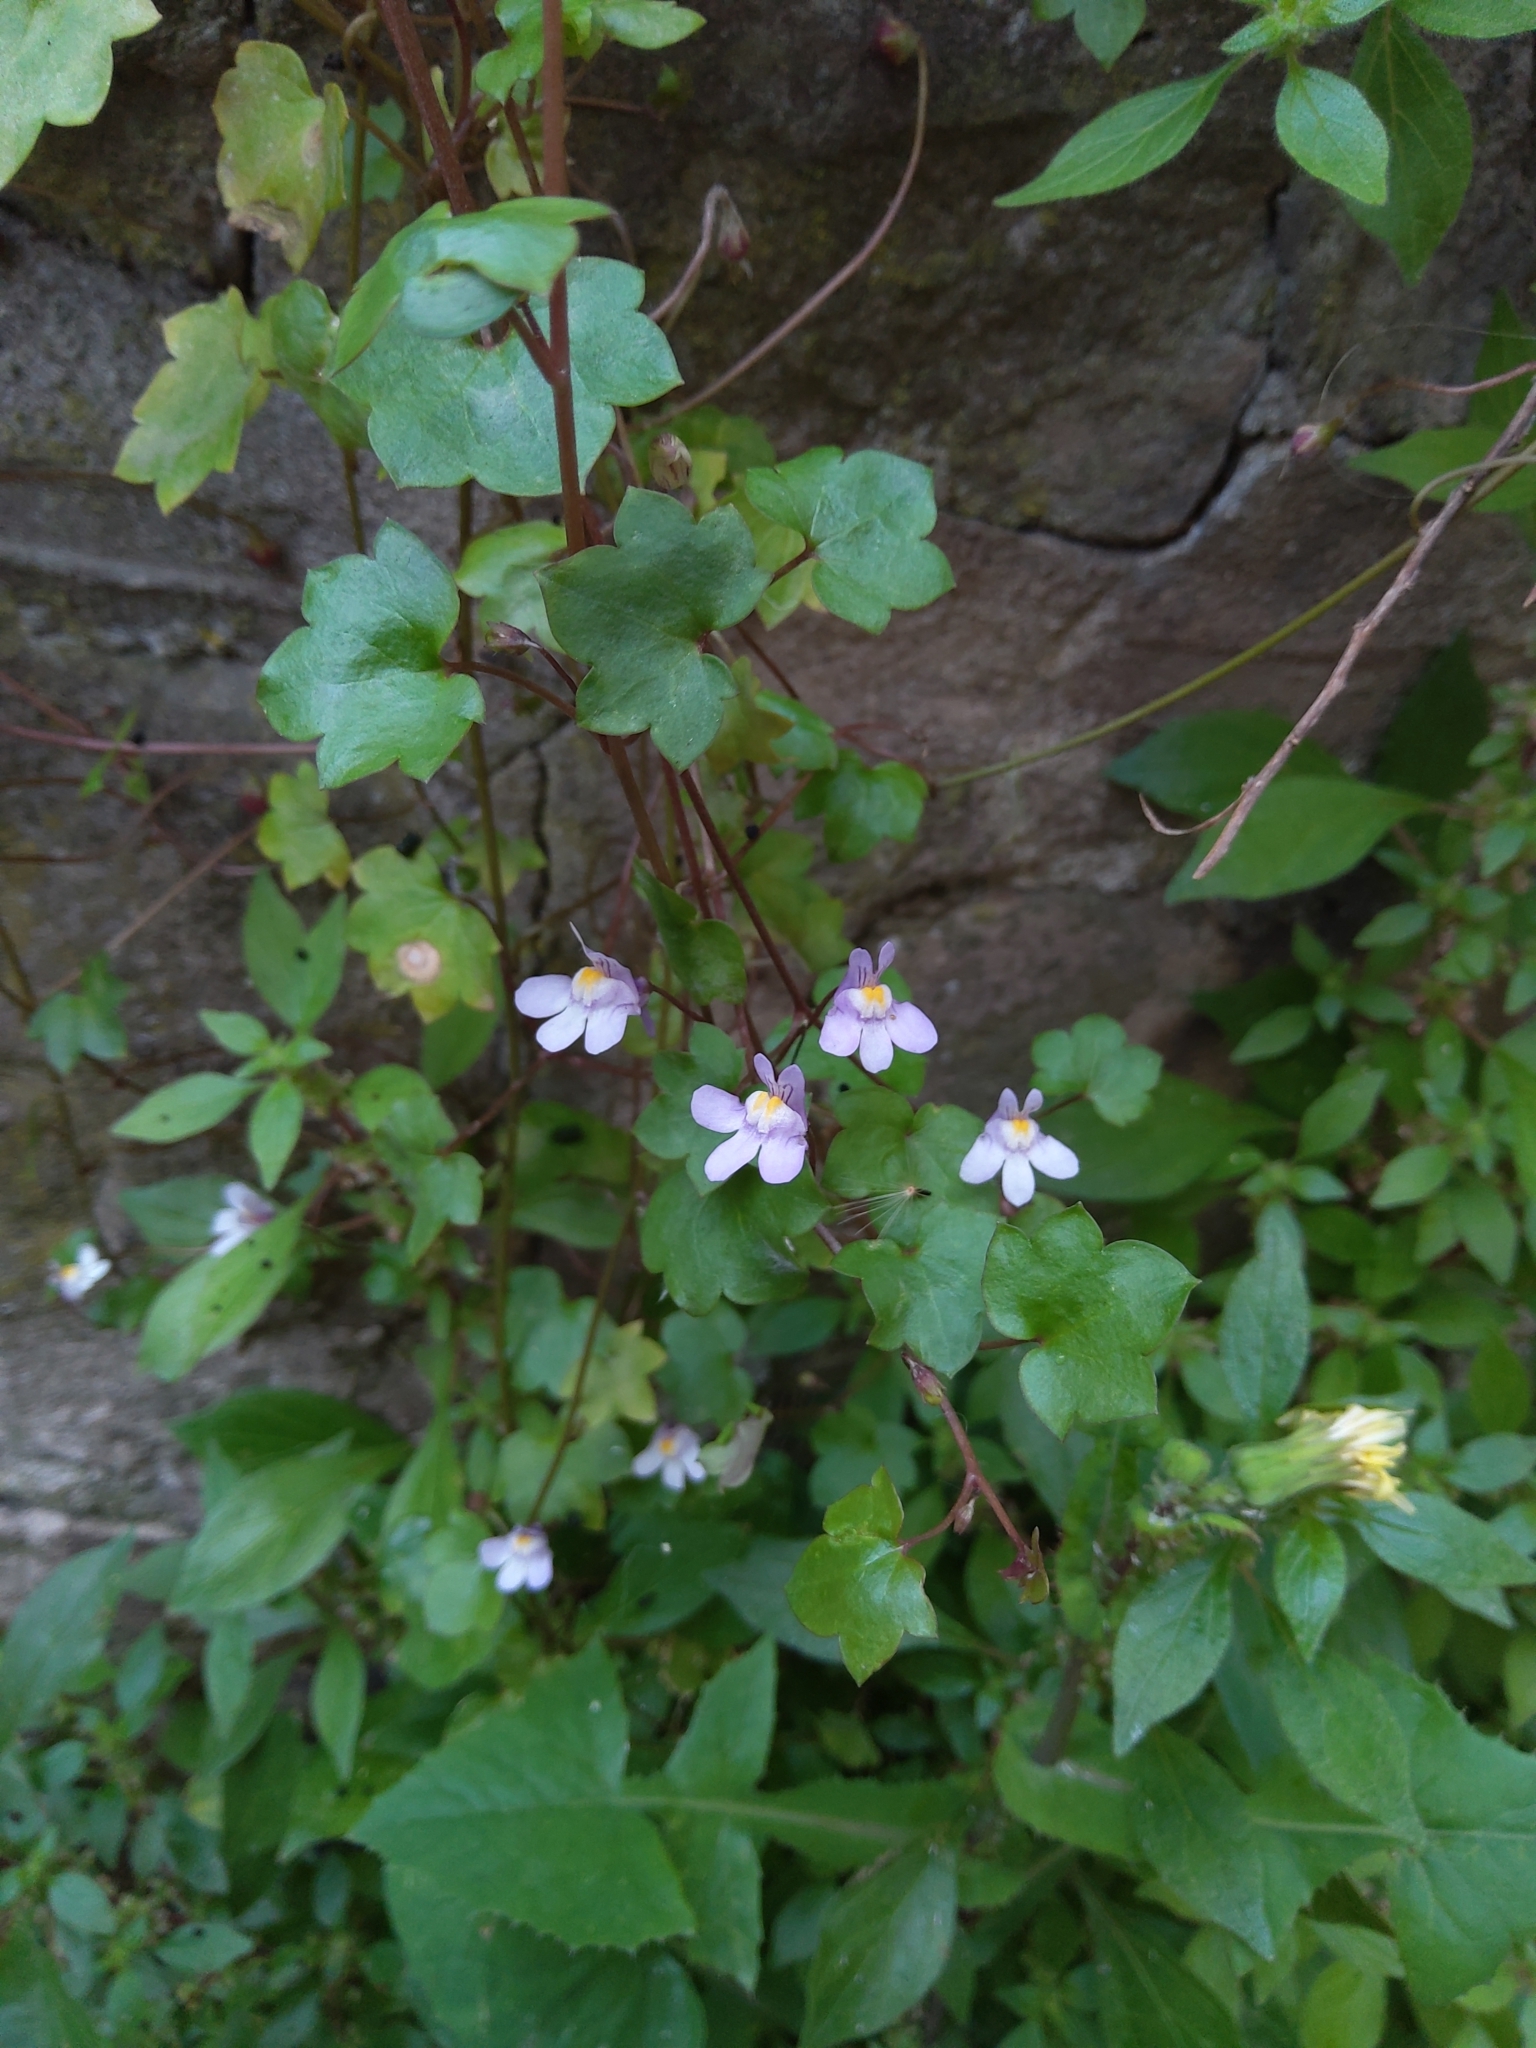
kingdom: Plantae
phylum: Tracheophyta
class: Magnoliopsida
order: Lamiales
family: Plantaginaceae
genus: Cymbalaria
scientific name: Cymbalaria muralis
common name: Ivy-leaved toadflax
